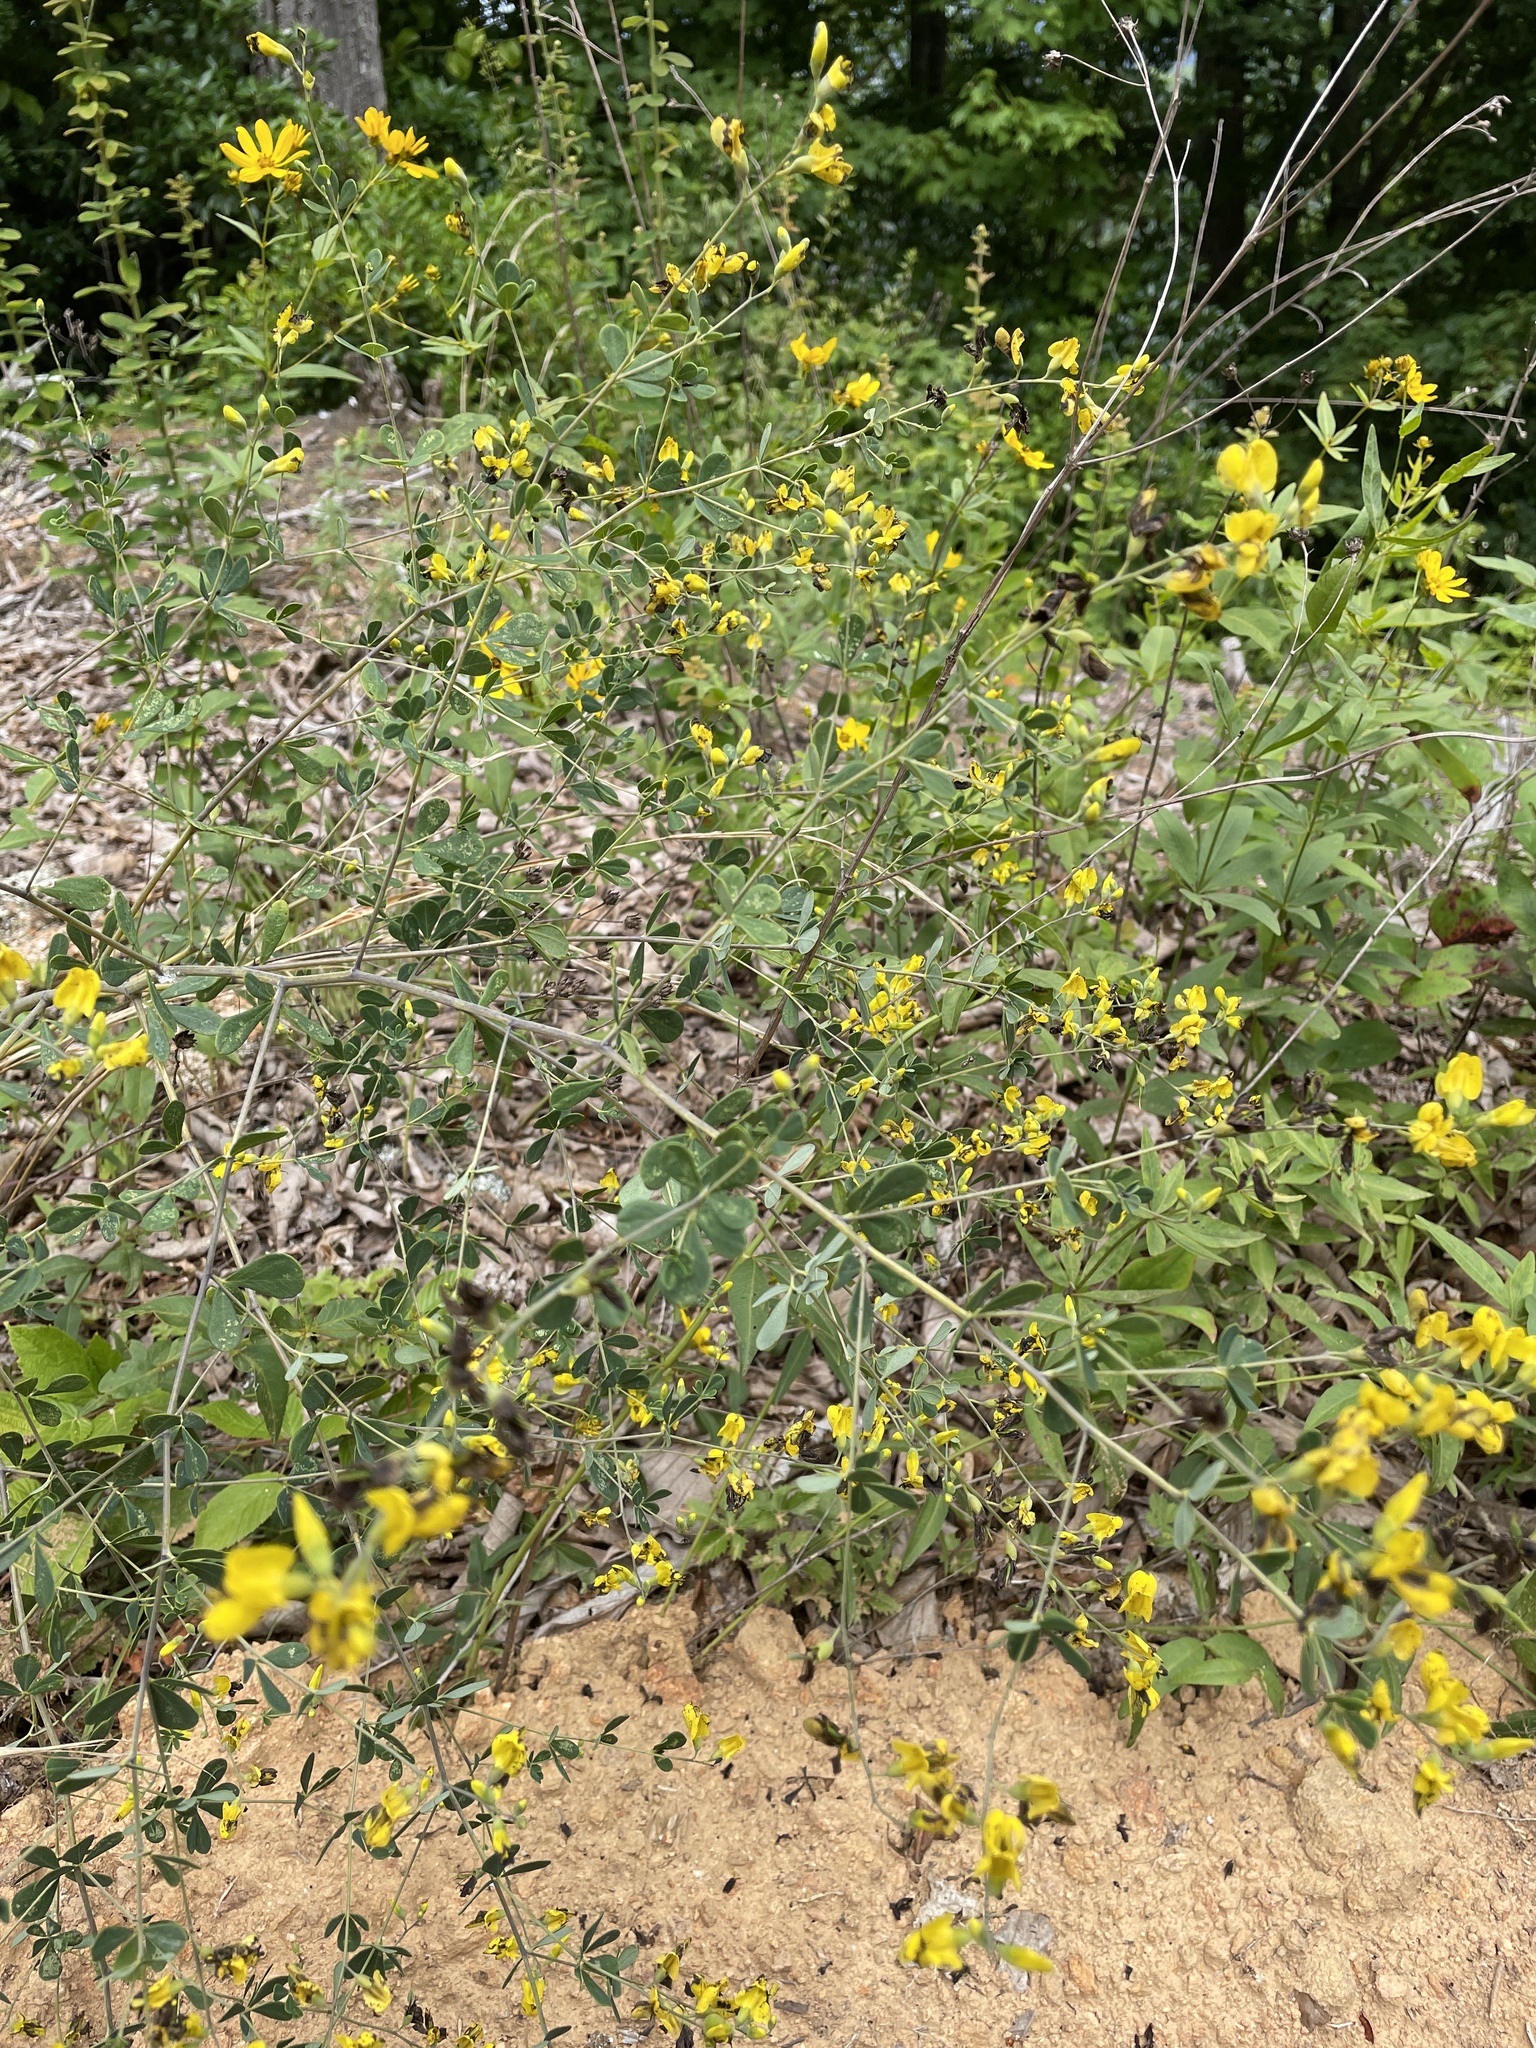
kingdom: Plantae
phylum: Tracheophyta
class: Magnoliopsida
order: Fabales
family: Fabaceae
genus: Baptisia
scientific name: Baptisia tinctoria
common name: Wild indigo
